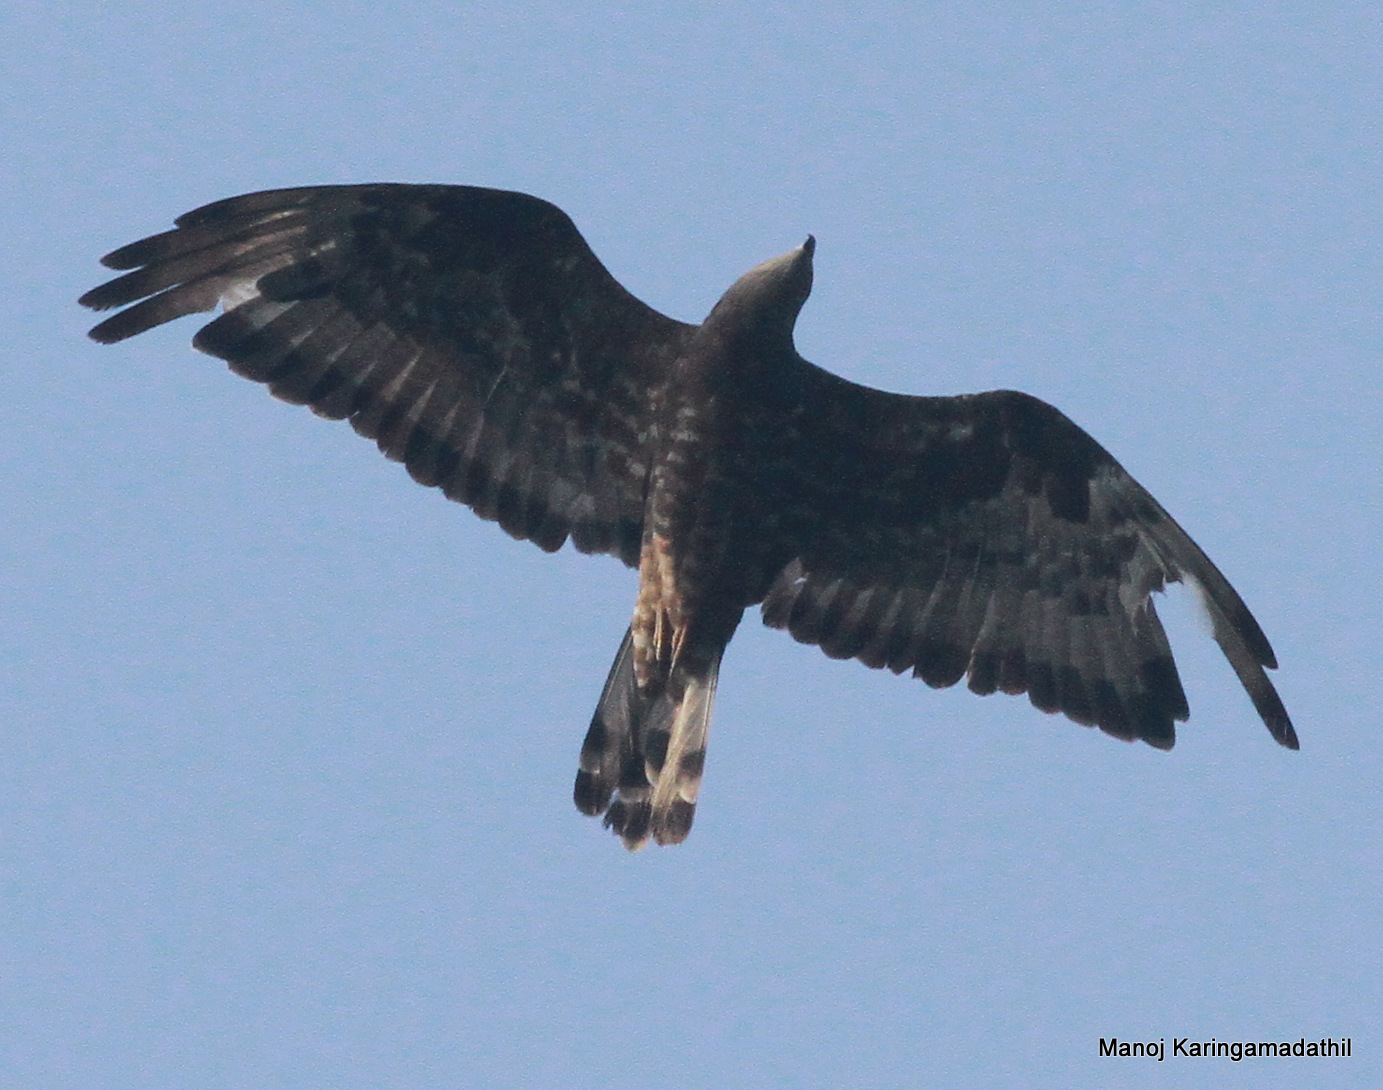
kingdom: Animalia
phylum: Chordata
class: Aves
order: Accipitriformes
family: Accipitridae
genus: Pernis
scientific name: Pernis ptilorhynchus
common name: Crested honey buzzard
